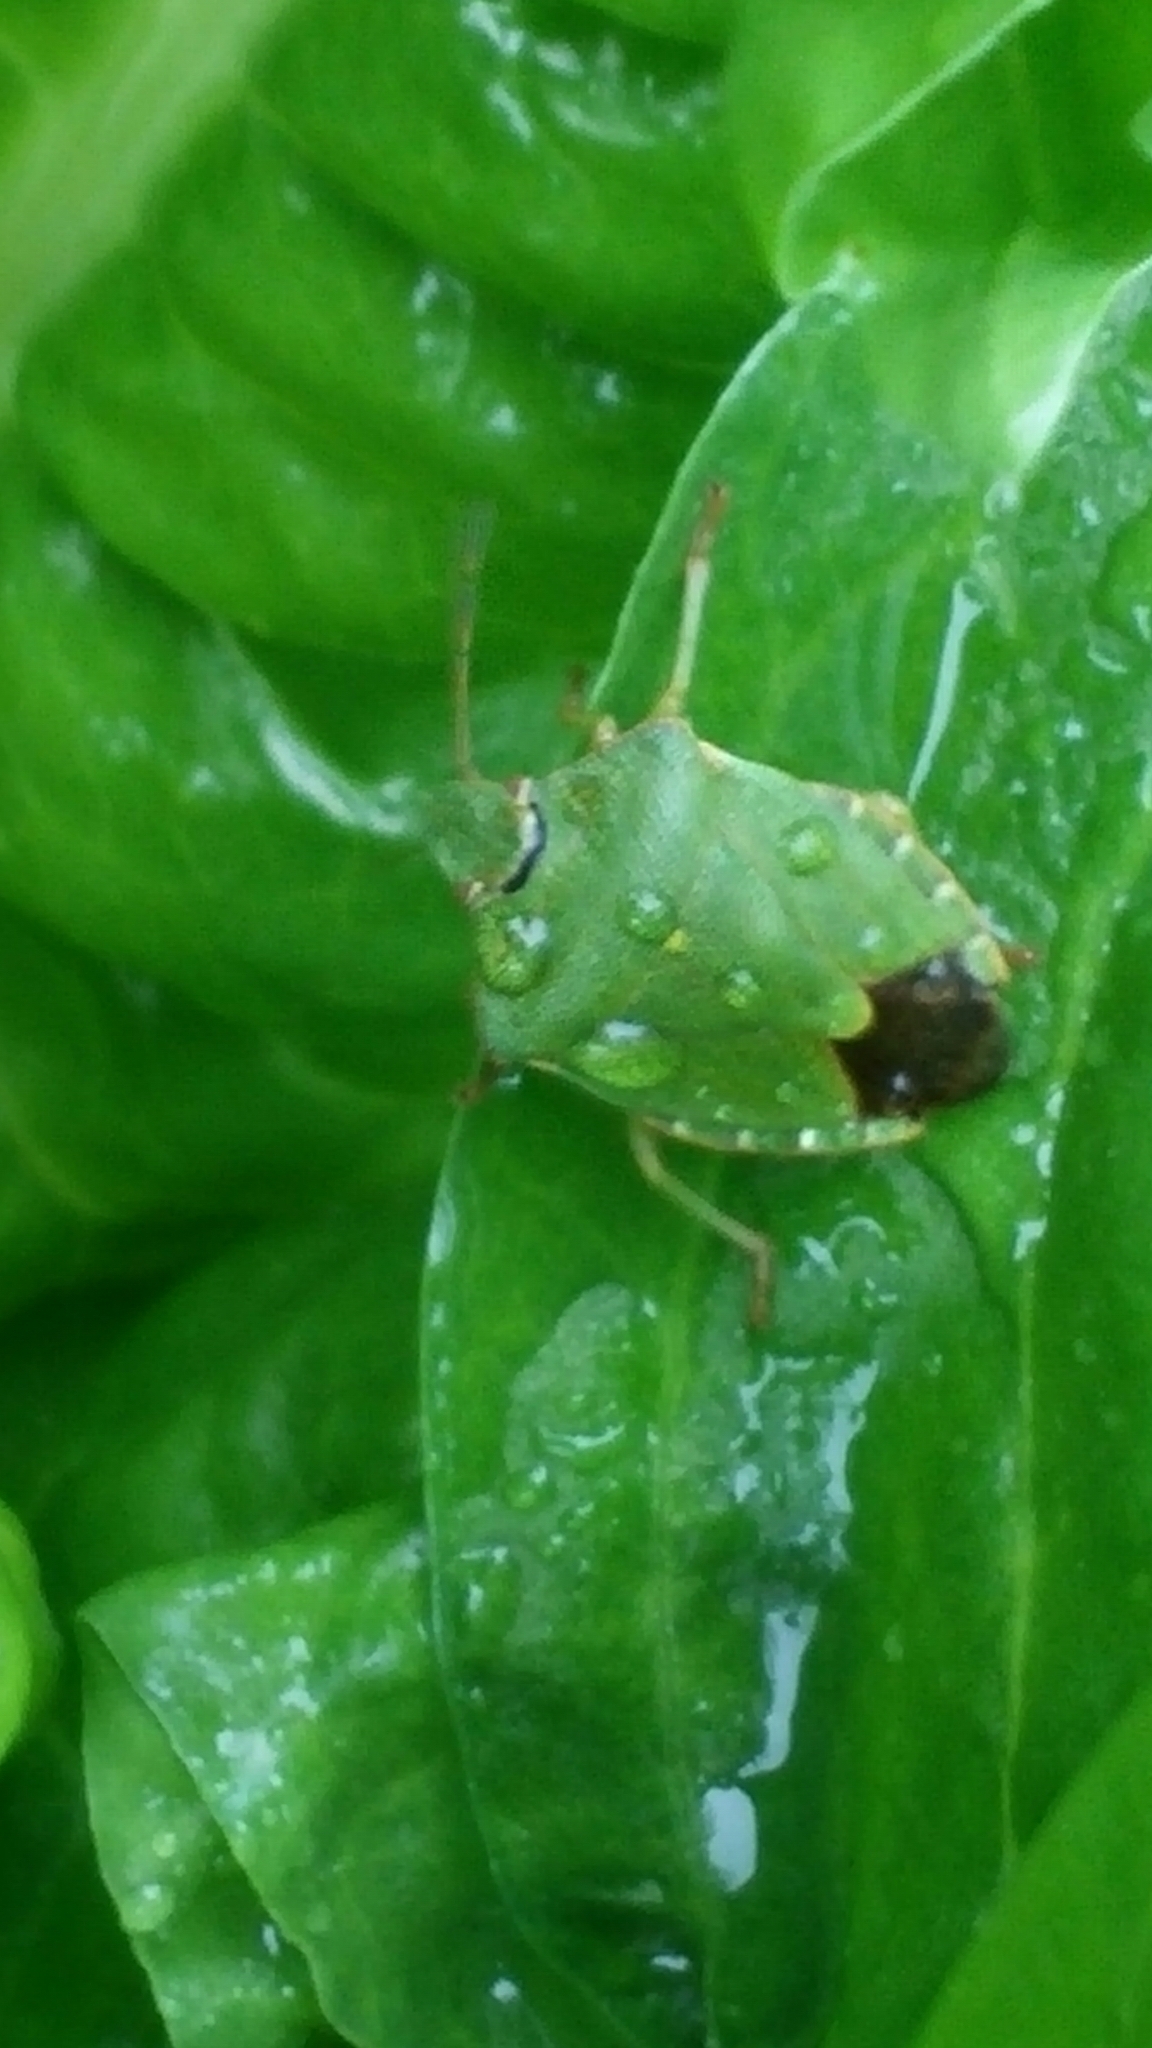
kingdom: Animalia
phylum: Arthropoda
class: Insecta
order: Hemiptera
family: Pentatomidae
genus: Palomena
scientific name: Palomena prasina
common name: Green shieldbug
